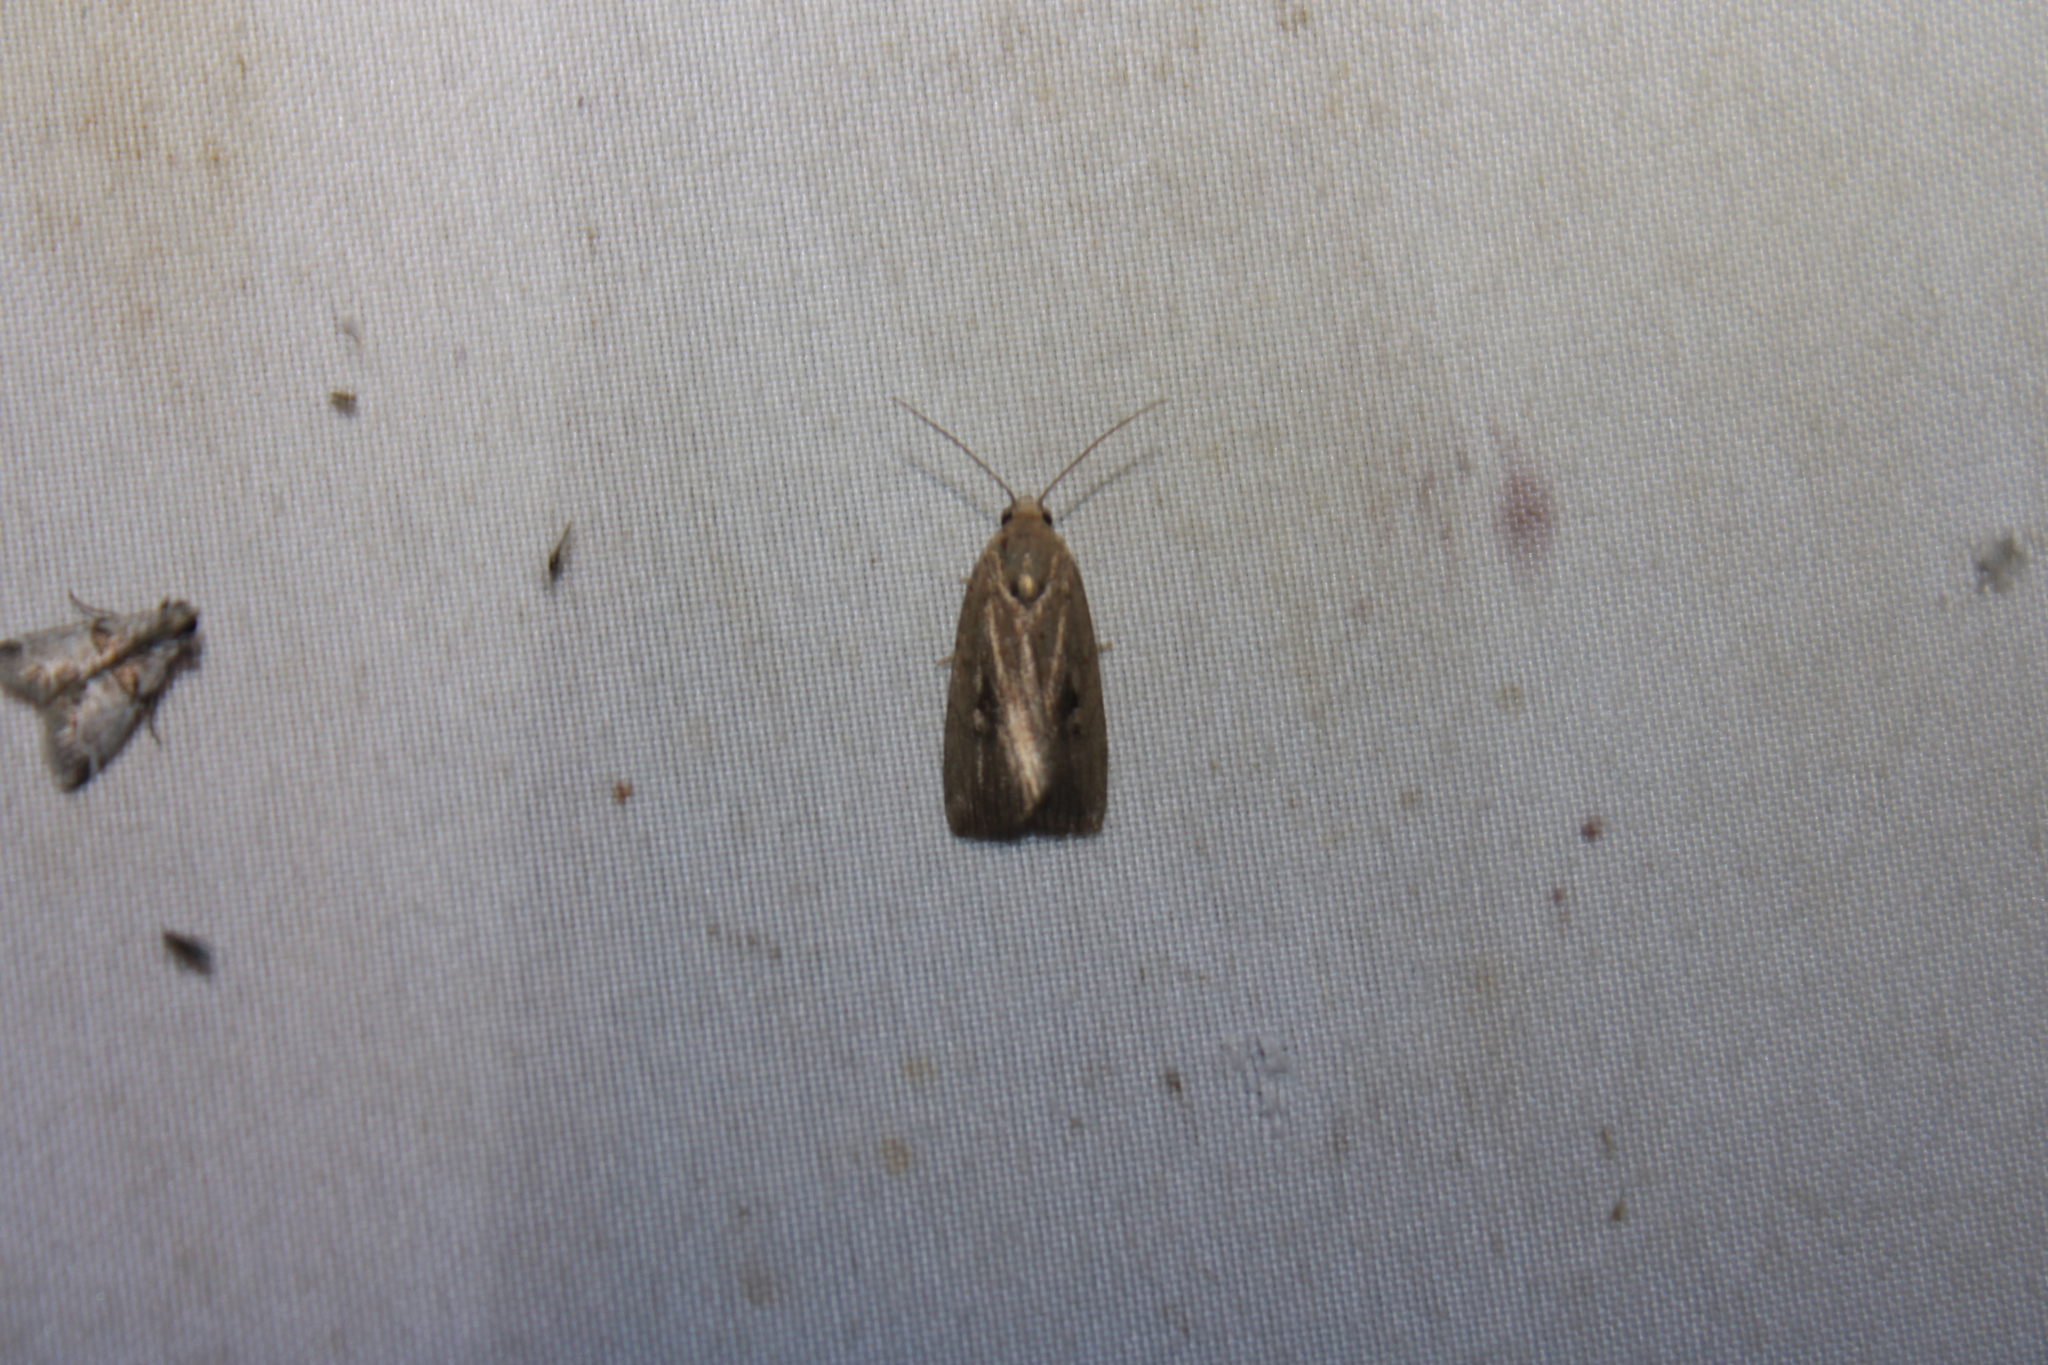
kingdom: Animalia
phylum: Arthropoda
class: Insecta
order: Lepidoptera
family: Noctuidae
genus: Elaphria
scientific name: Elaphria nucicolora
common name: Sugarcane midget moth
